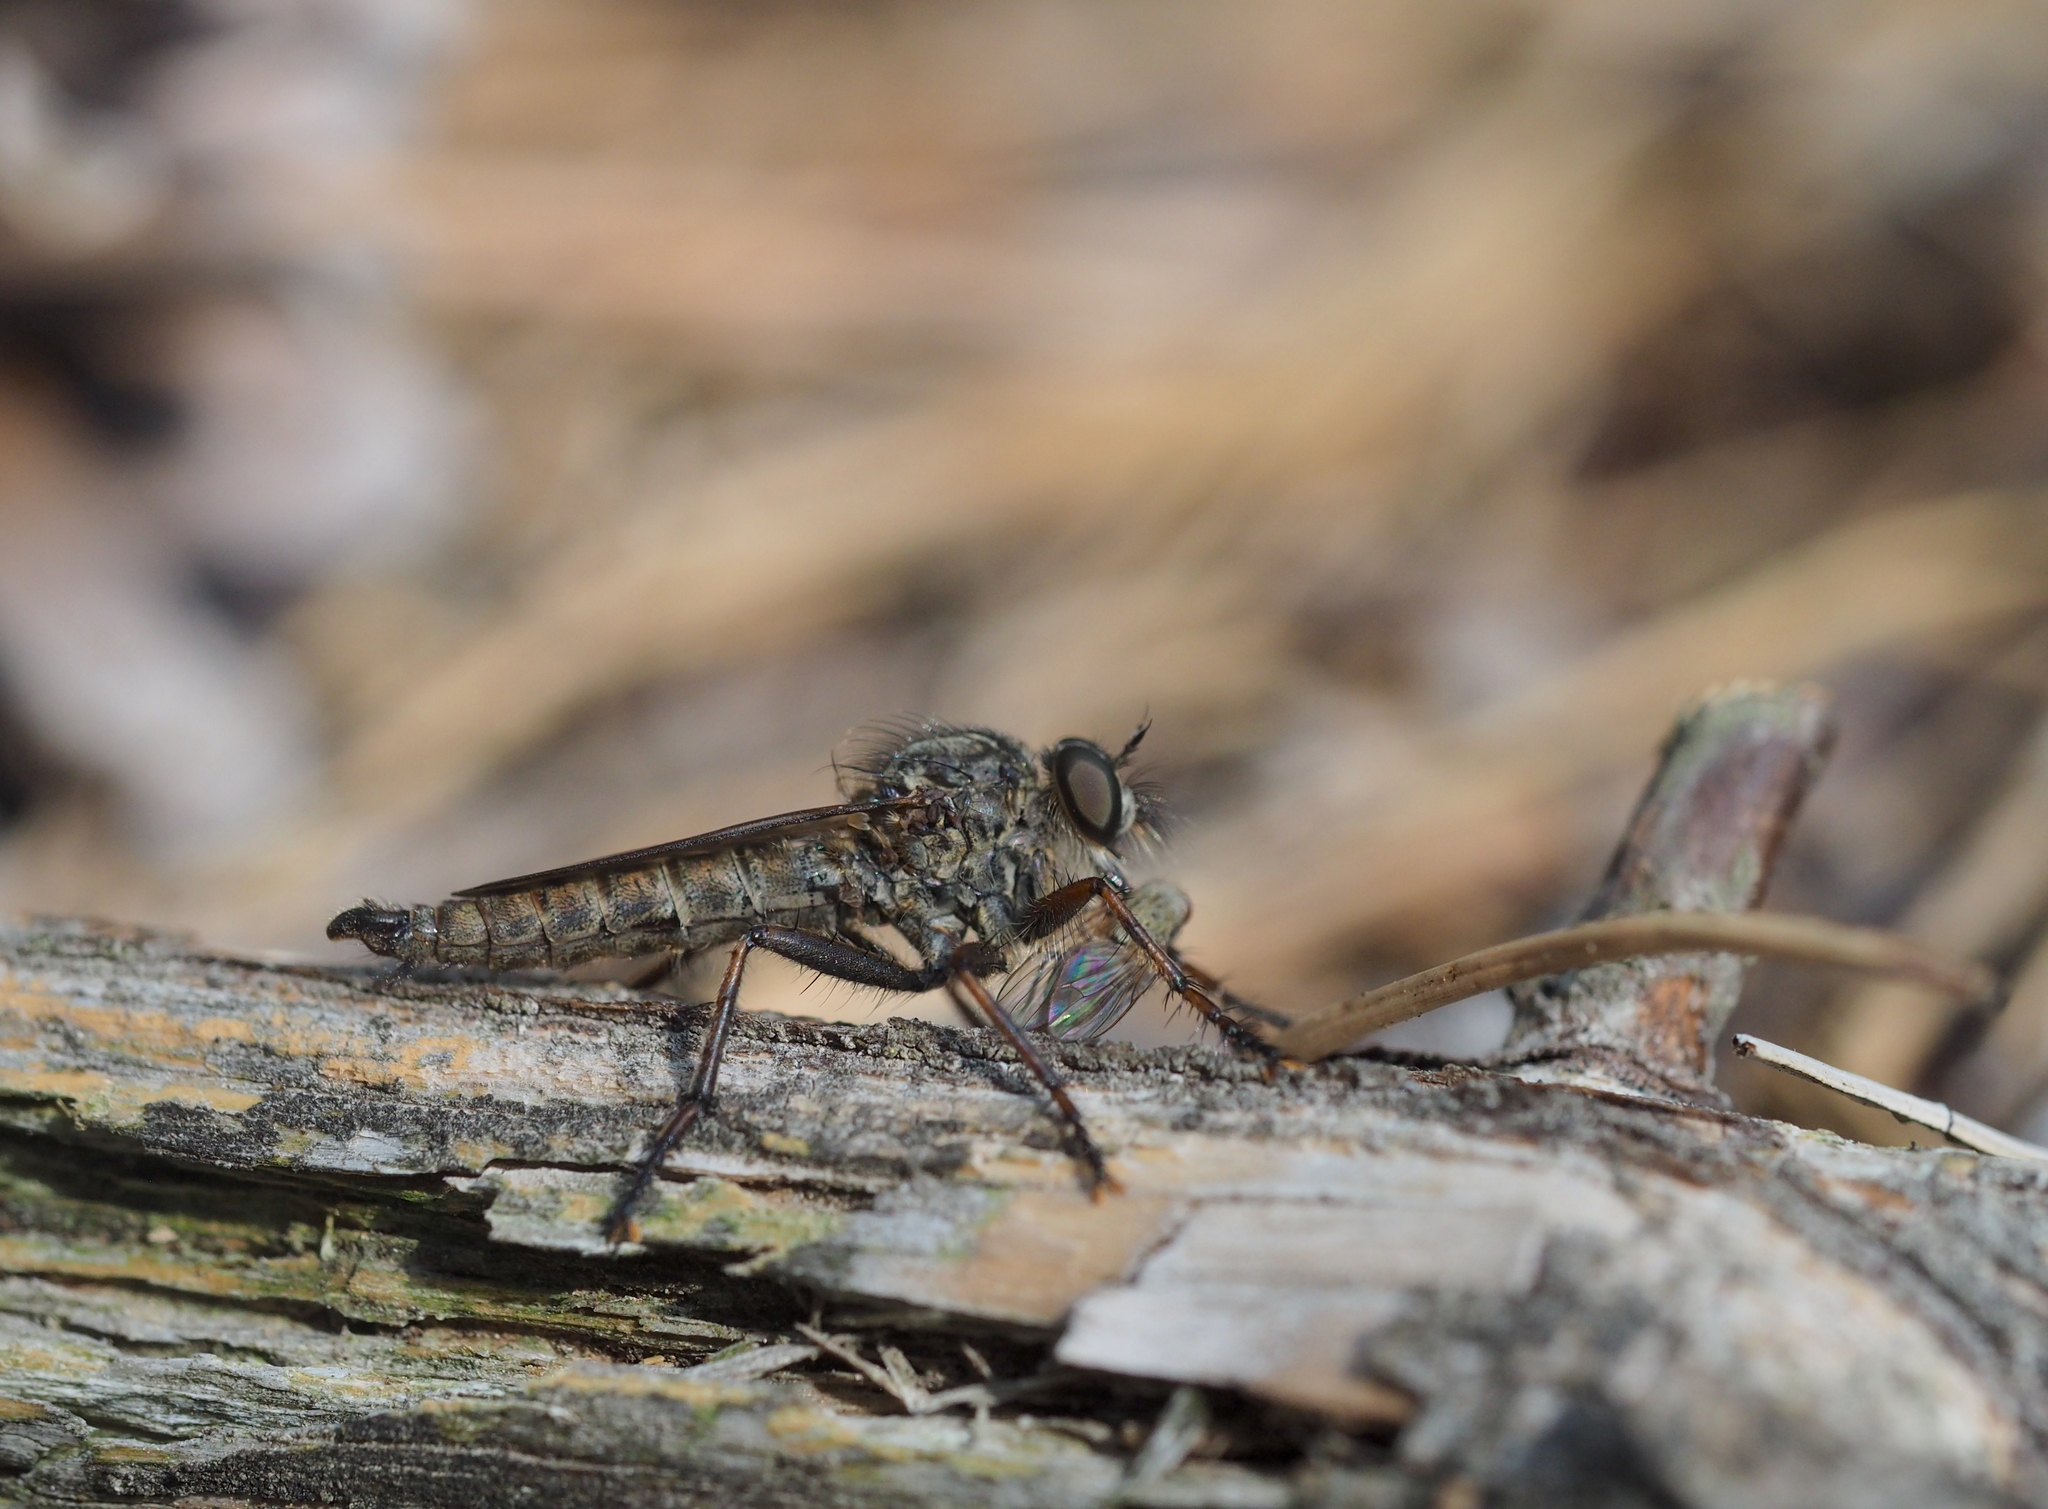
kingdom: Animalia
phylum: Arthropoda
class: Insecta
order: Diptera
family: Asilidae
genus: Machimus
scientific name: Machimus atricapillus
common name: Kite-tailed robberfly
